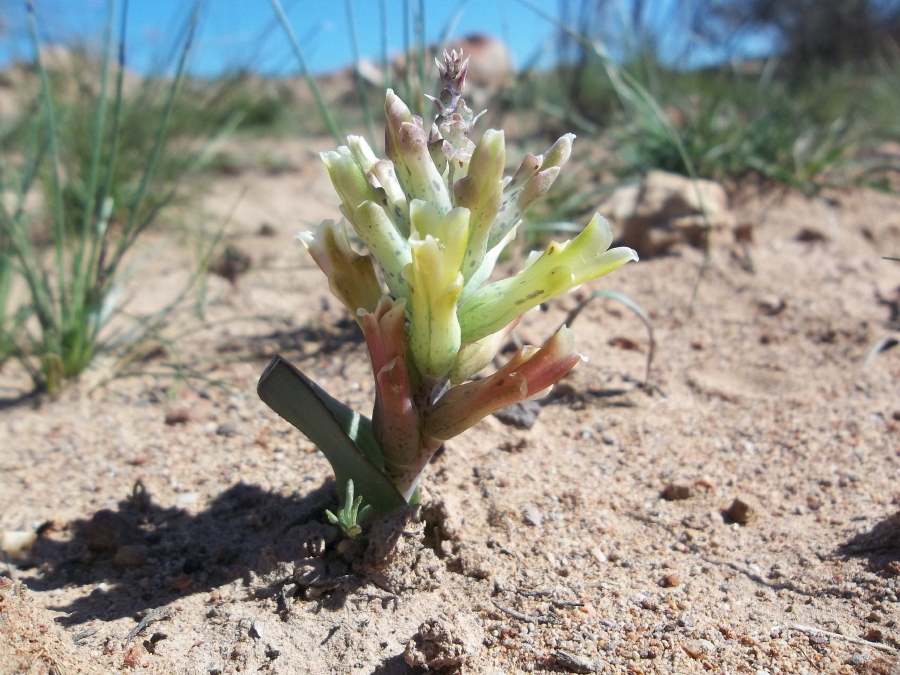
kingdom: Plantae
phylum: Tracheophyta
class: Liliopsida
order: Asparagales
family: Asparagaceae
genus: Lachenalia
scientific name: Lachenalia orchioides
